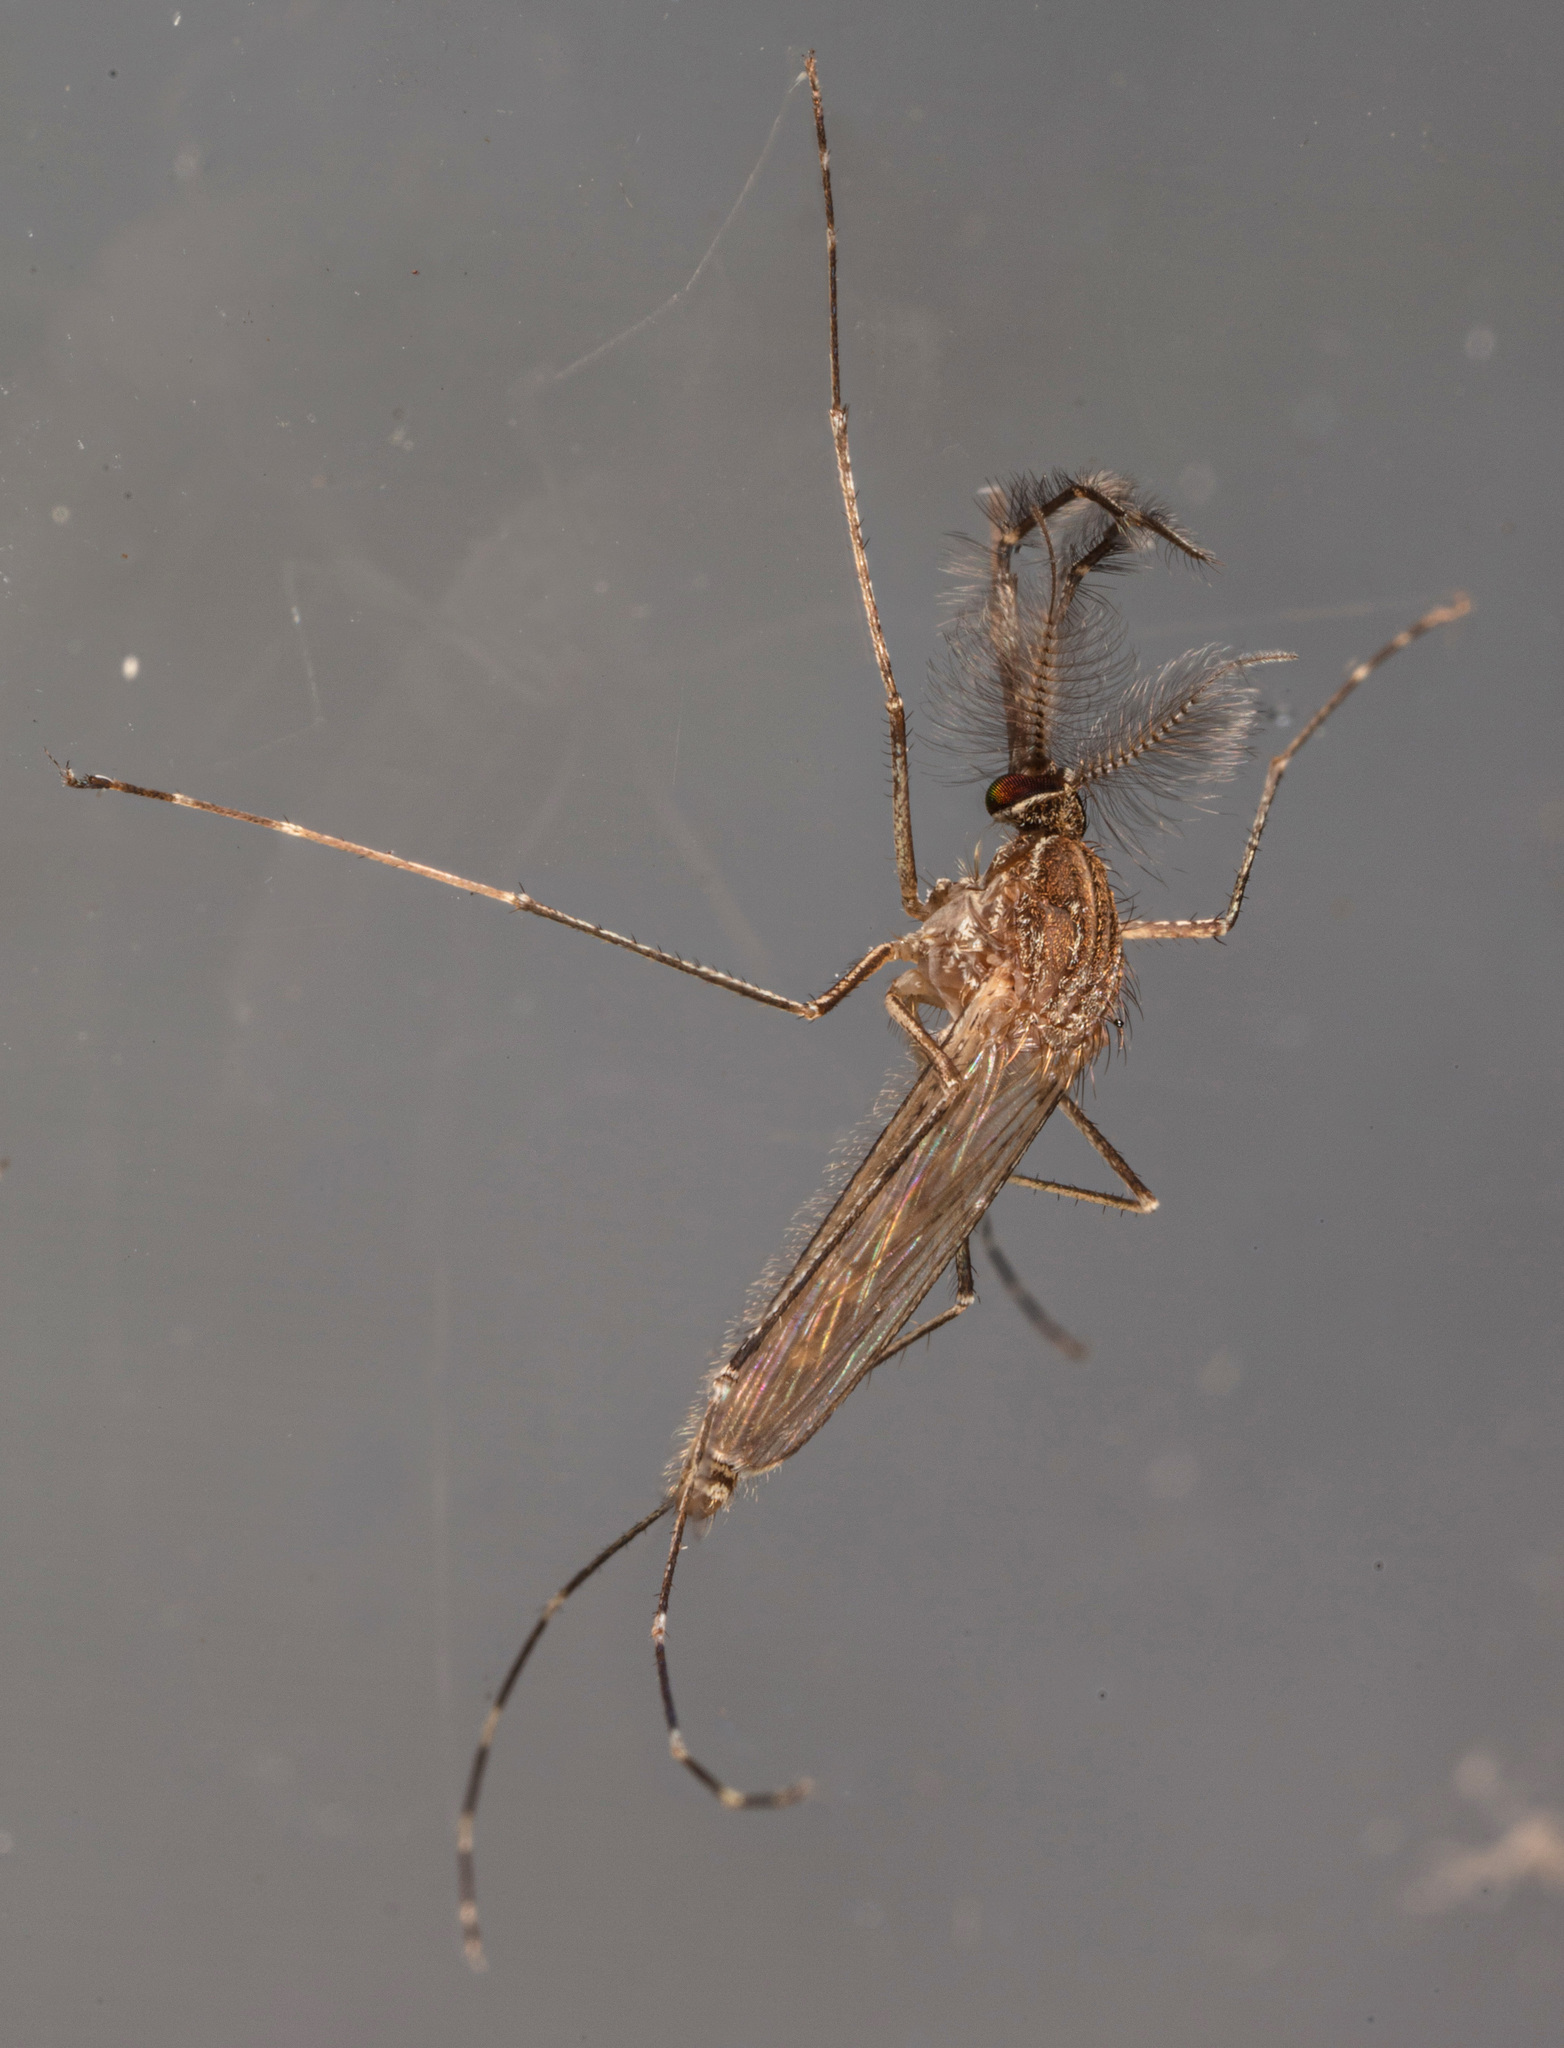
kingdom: Animalia
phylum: Arthropoda
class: Insecta
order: Diptera
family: Culicidae
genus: Culex
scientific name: Culex tarsalis
